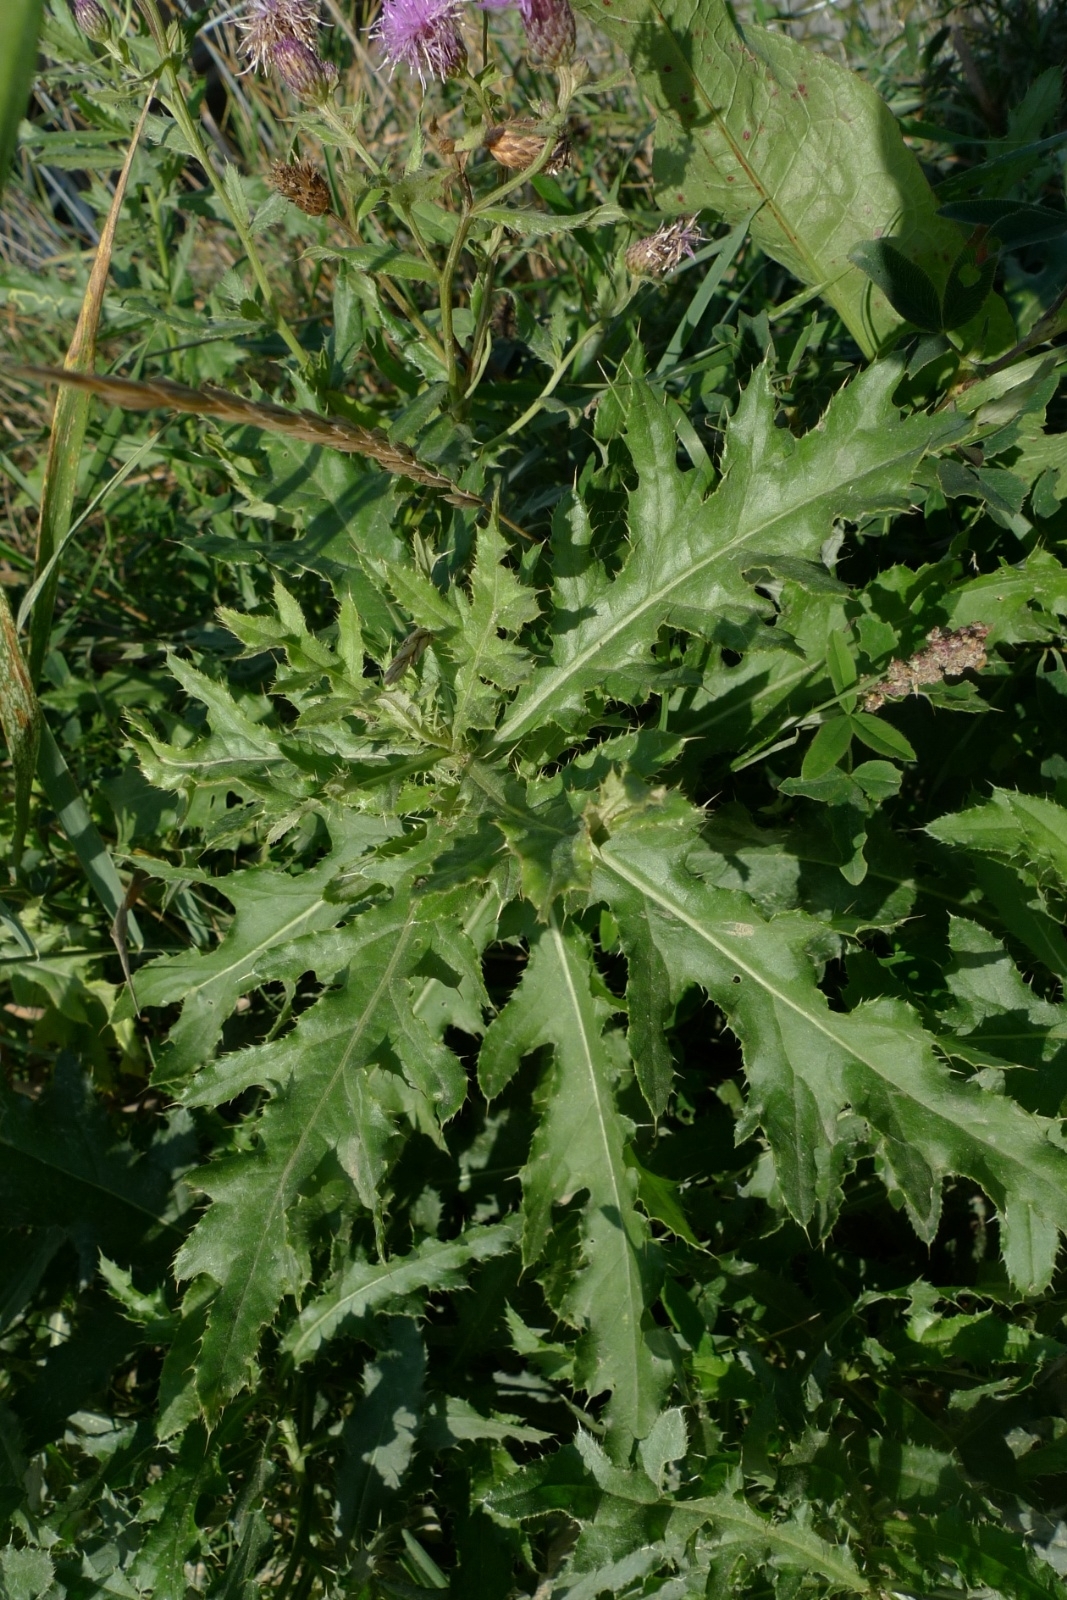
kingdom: Plantae
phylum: Tracheophyta
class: Magnoliopsida
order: Asterales
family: Asteraceae
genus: Cirsium
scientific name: Cirsium arvense
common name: Creeping thistle
